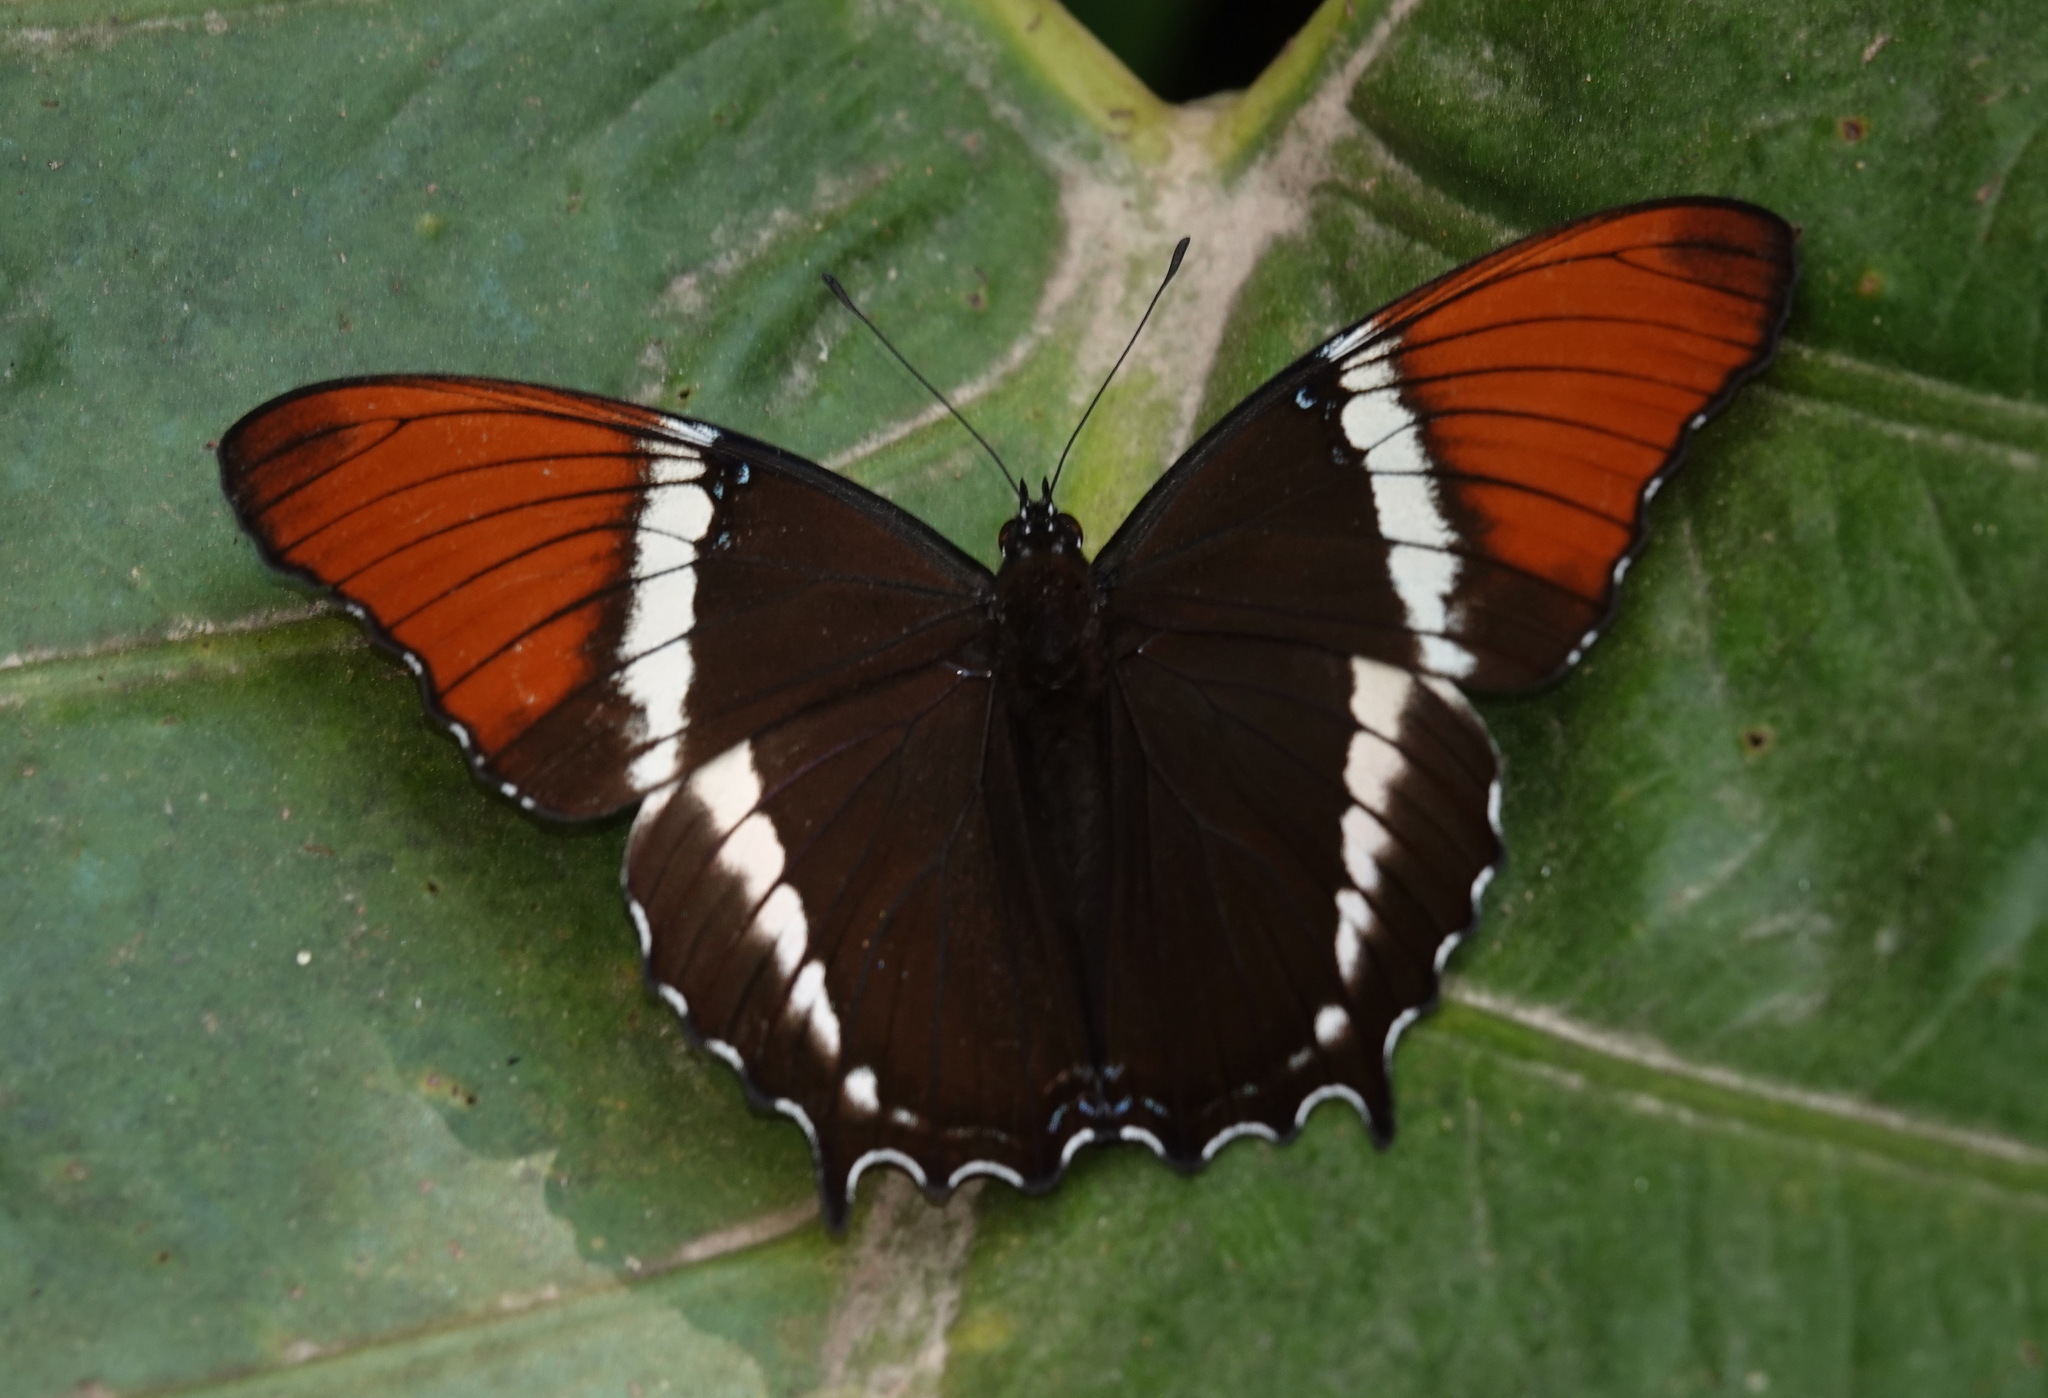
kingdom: Animalia
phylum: Arthropoda
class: Insecta
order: Lepidoptera
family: Nymphalidae
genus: Siproeta
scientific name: Siproeta epaphus
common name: Rusty-tipped page
